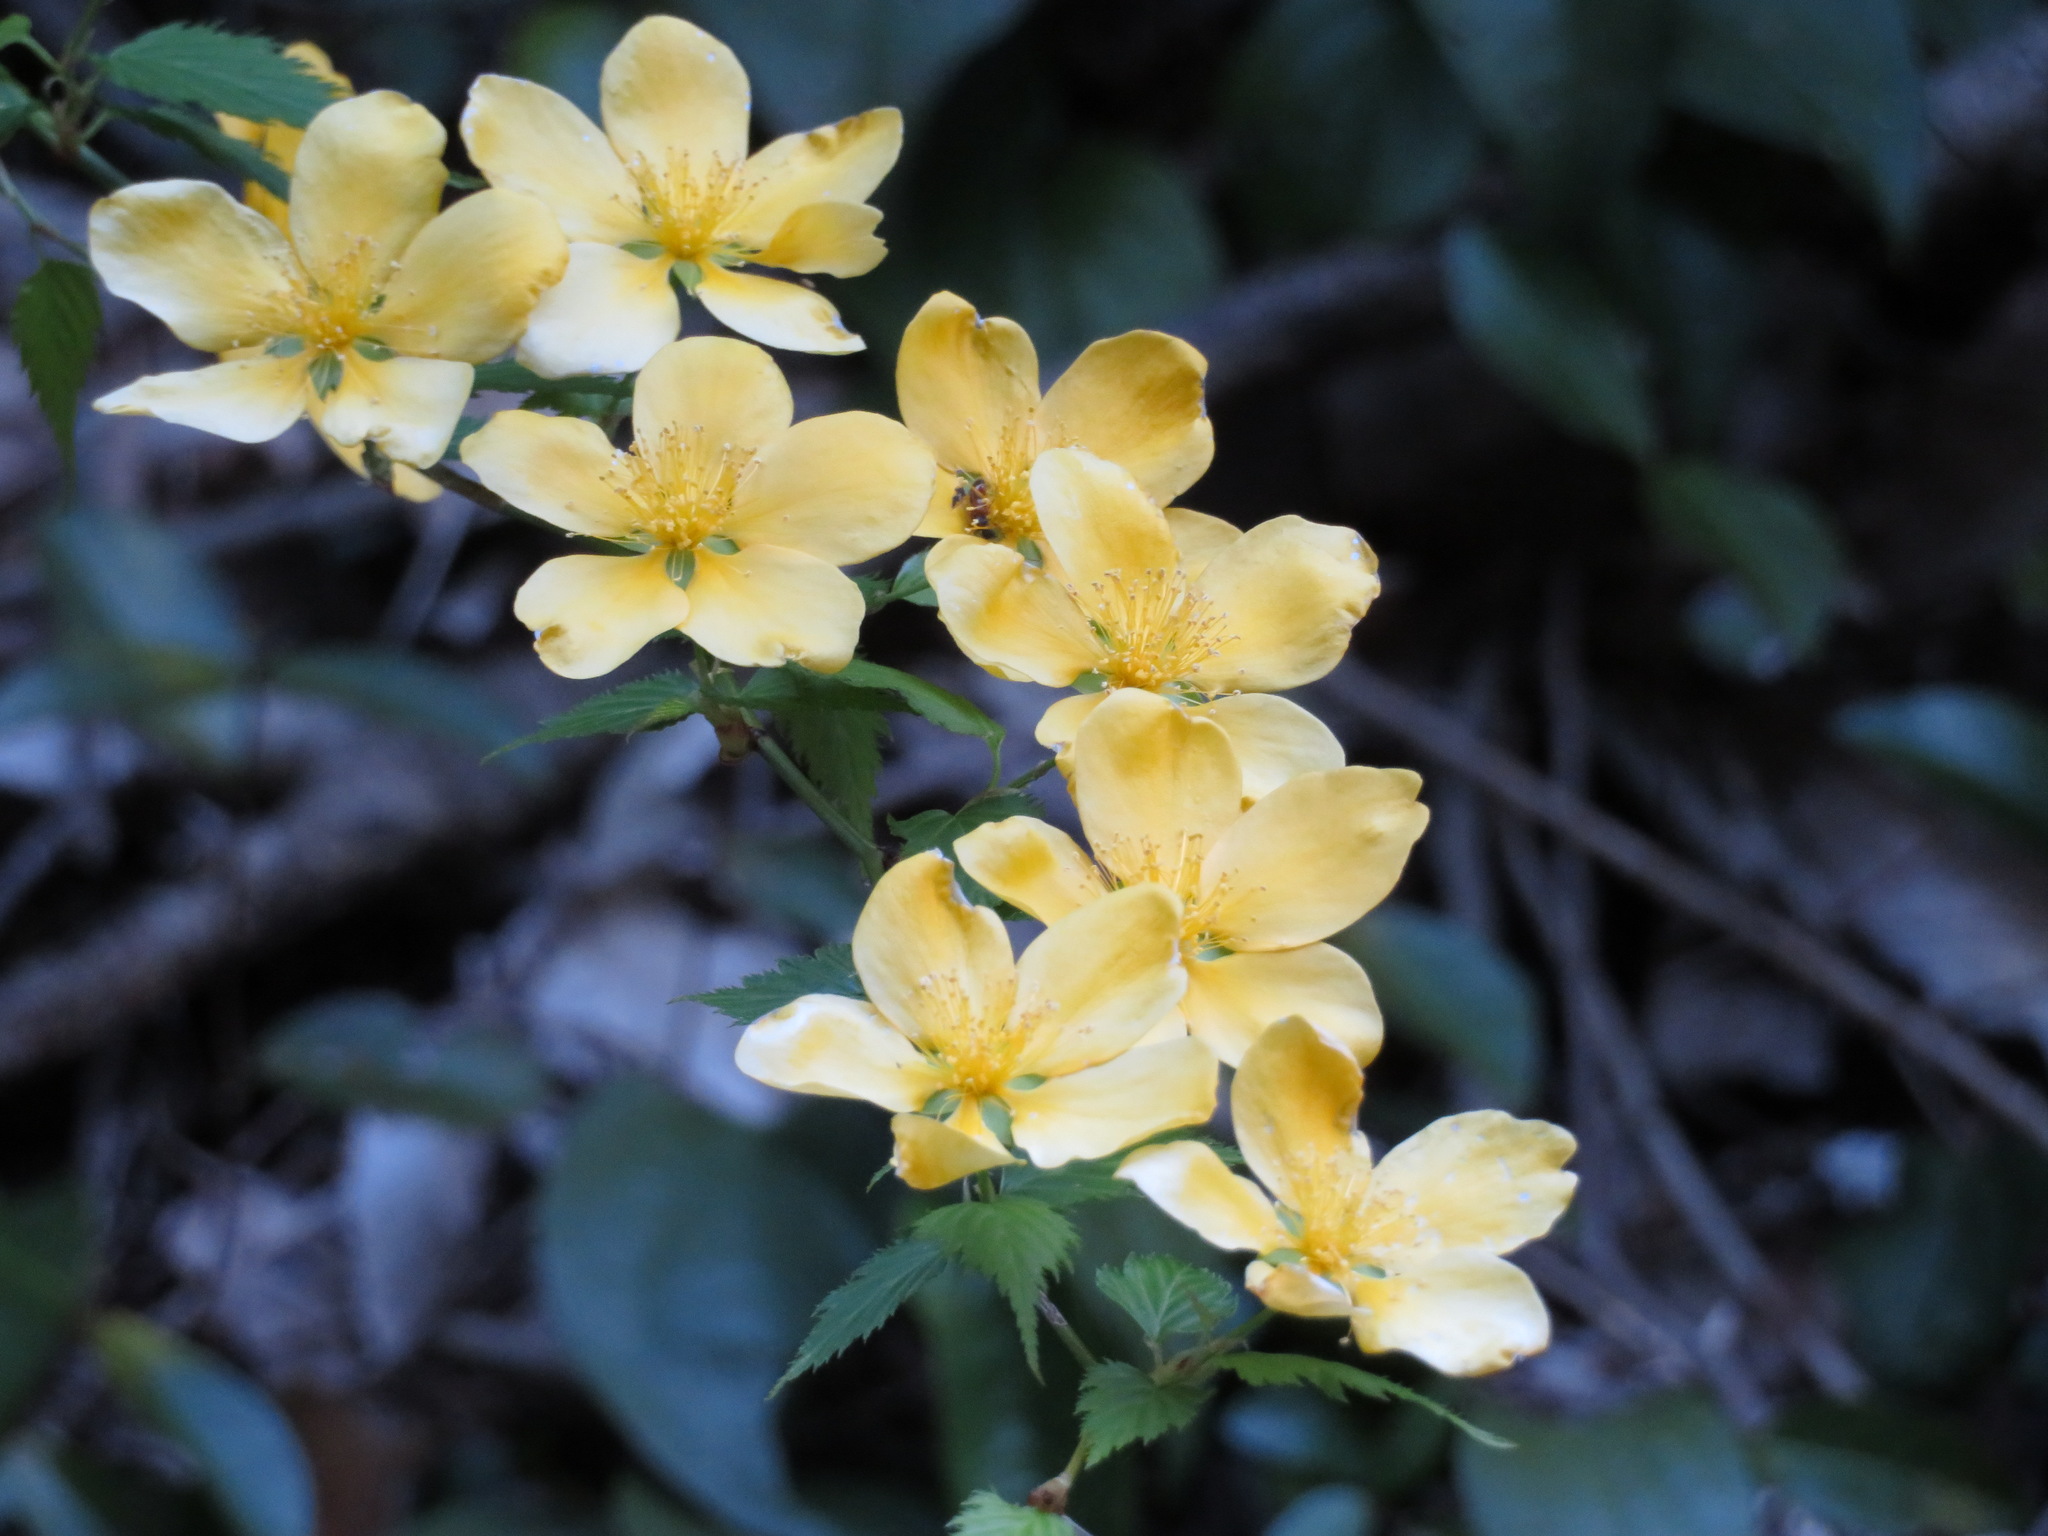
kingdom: Plantae
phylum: Tracheophyta
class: Magnoliopsida
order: Rosales
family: Rosaceae
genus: Kerria
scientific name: Kerria japonica
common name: Japanese kerria
